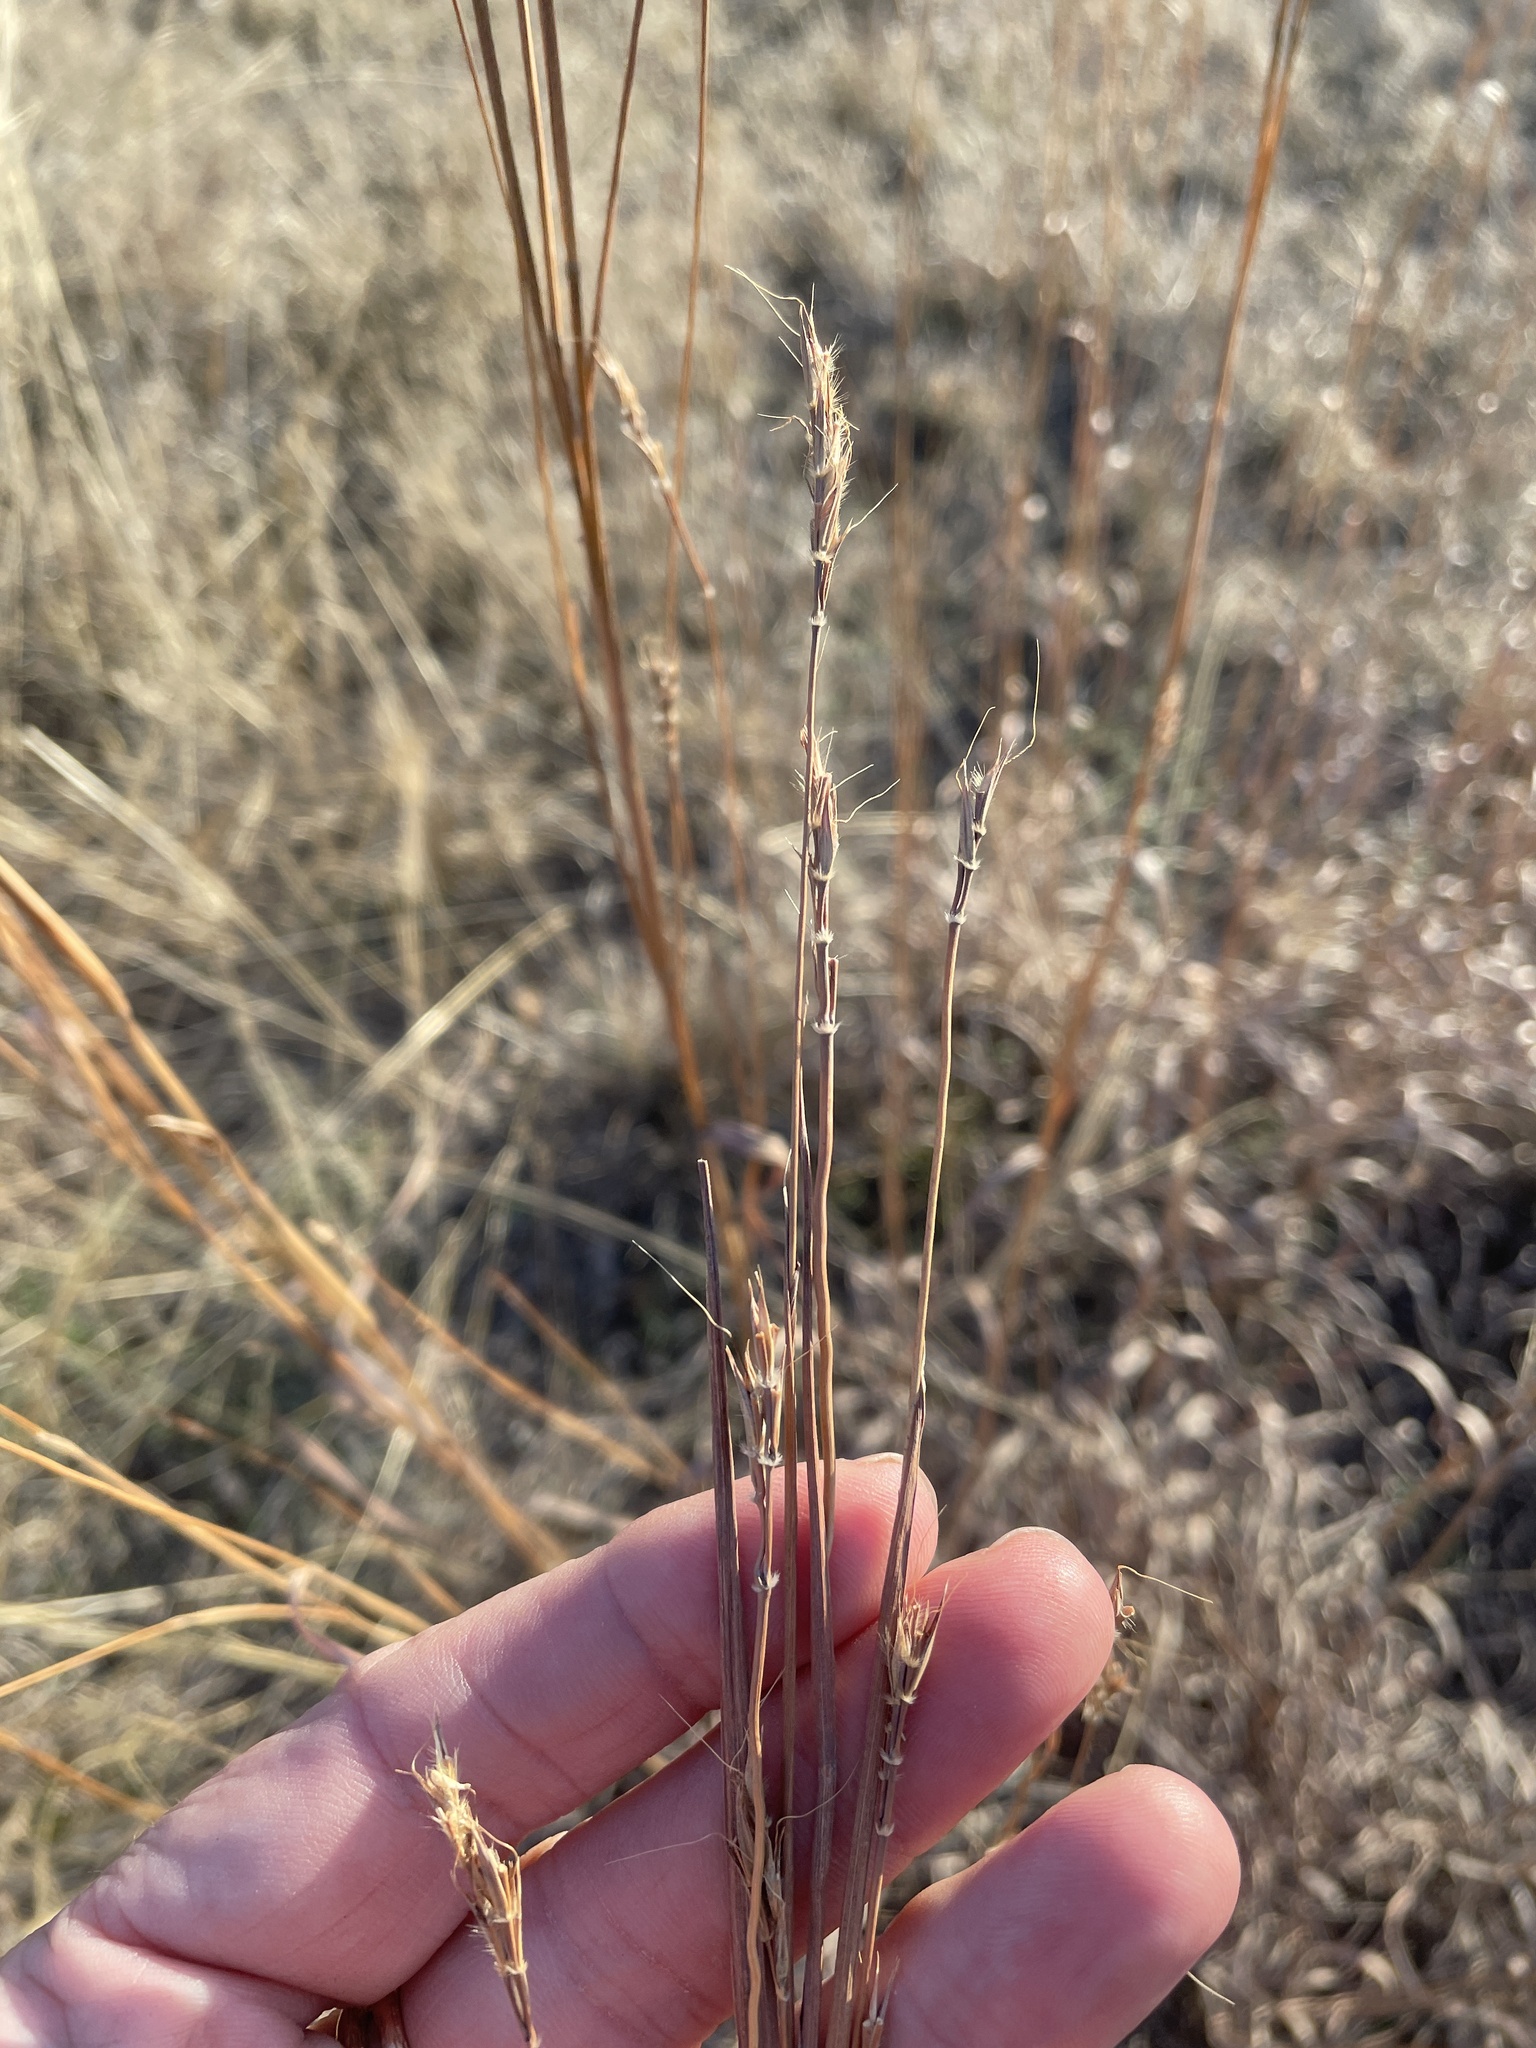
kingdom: Plantae
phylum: Tracheophyta
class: Liliopsida
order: Poales
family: Poaceae
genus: Andropogon
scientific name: Andropogon gerardi
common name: Big bluestem
